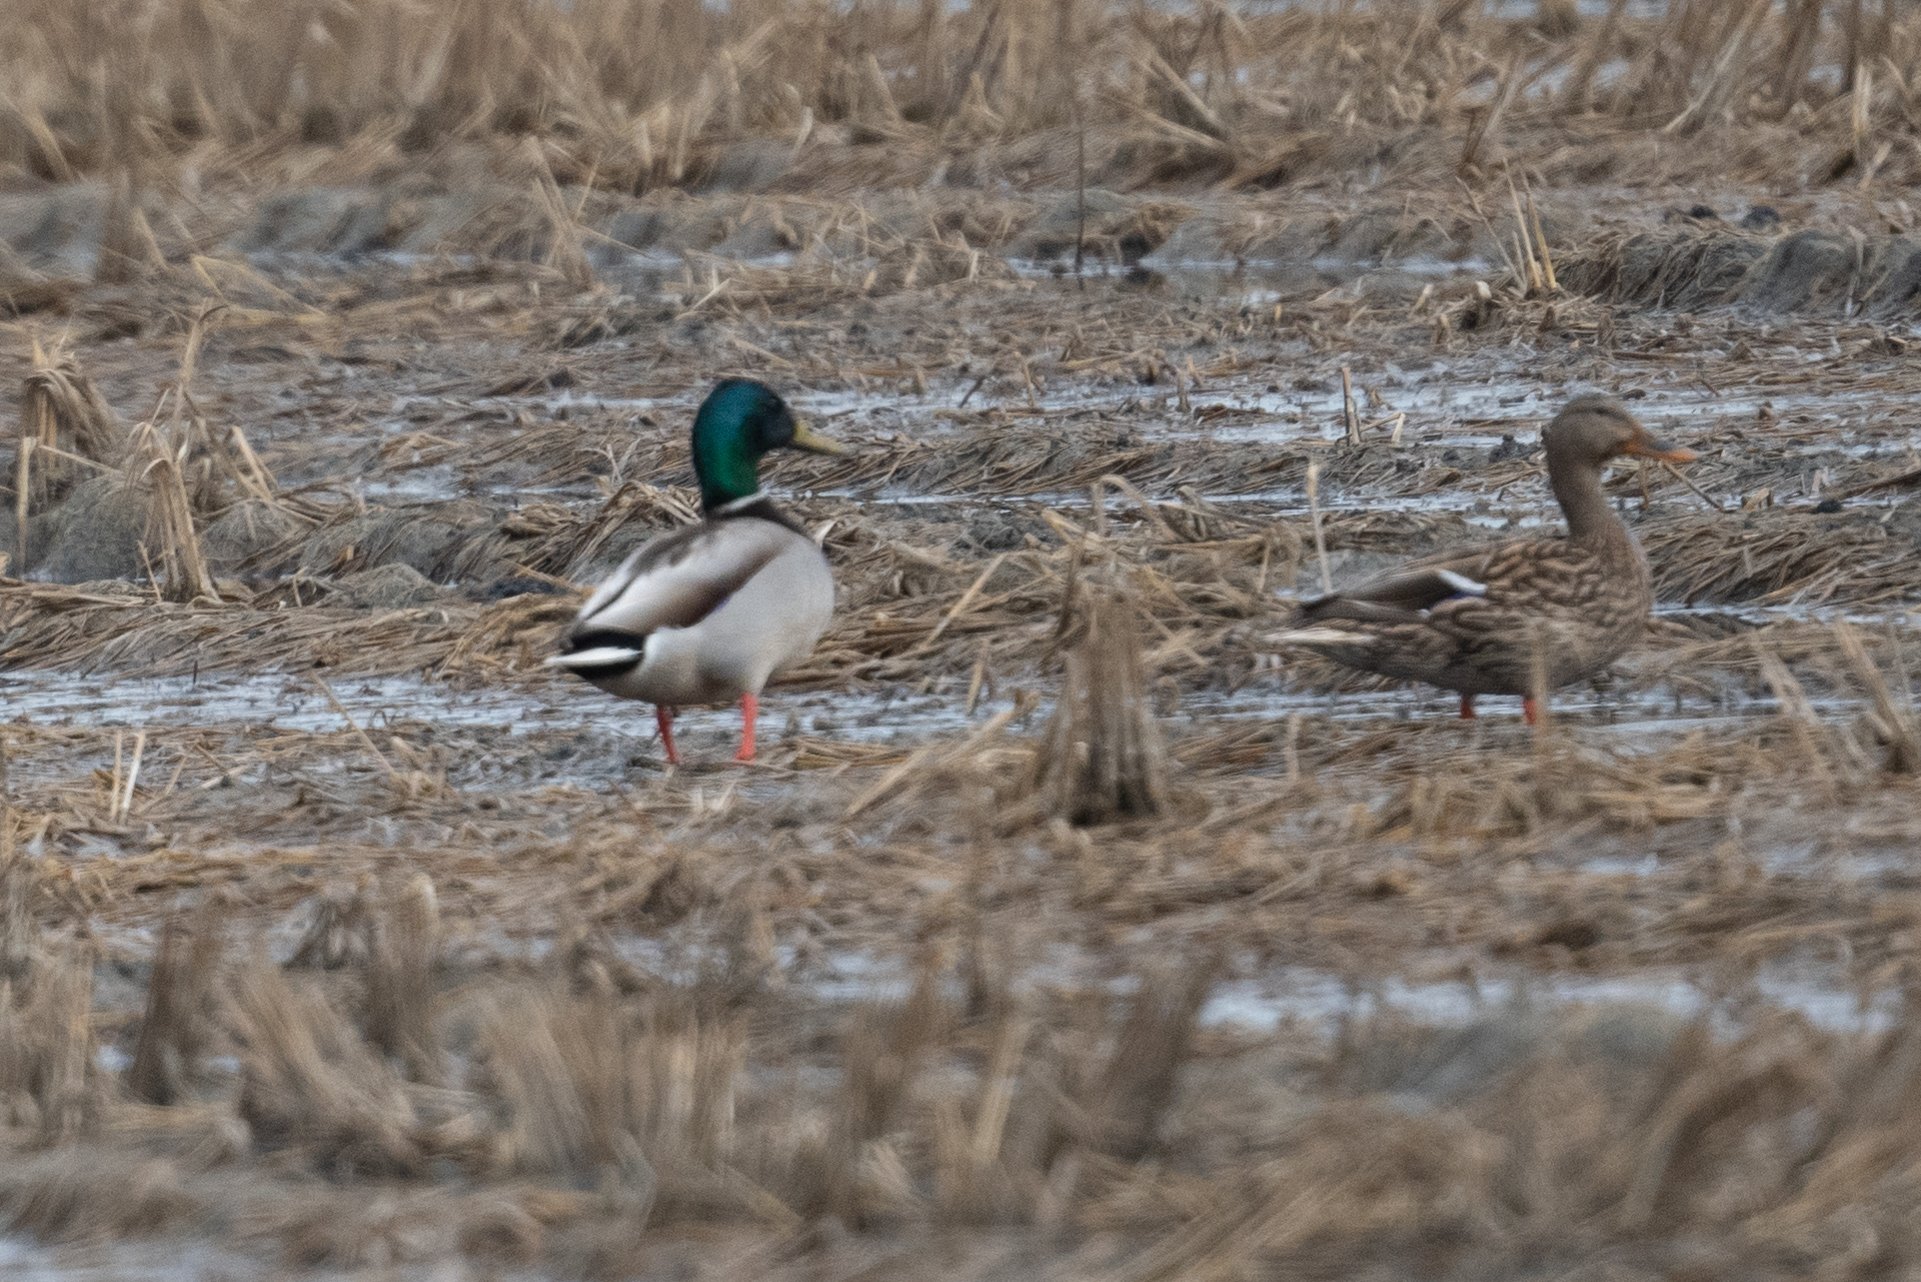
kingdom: Animalia
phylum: Chordata
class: Aves
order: Anseriformes
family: Anatidae
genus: Anas
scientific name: Anas platyrhynchos
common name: Mallard
